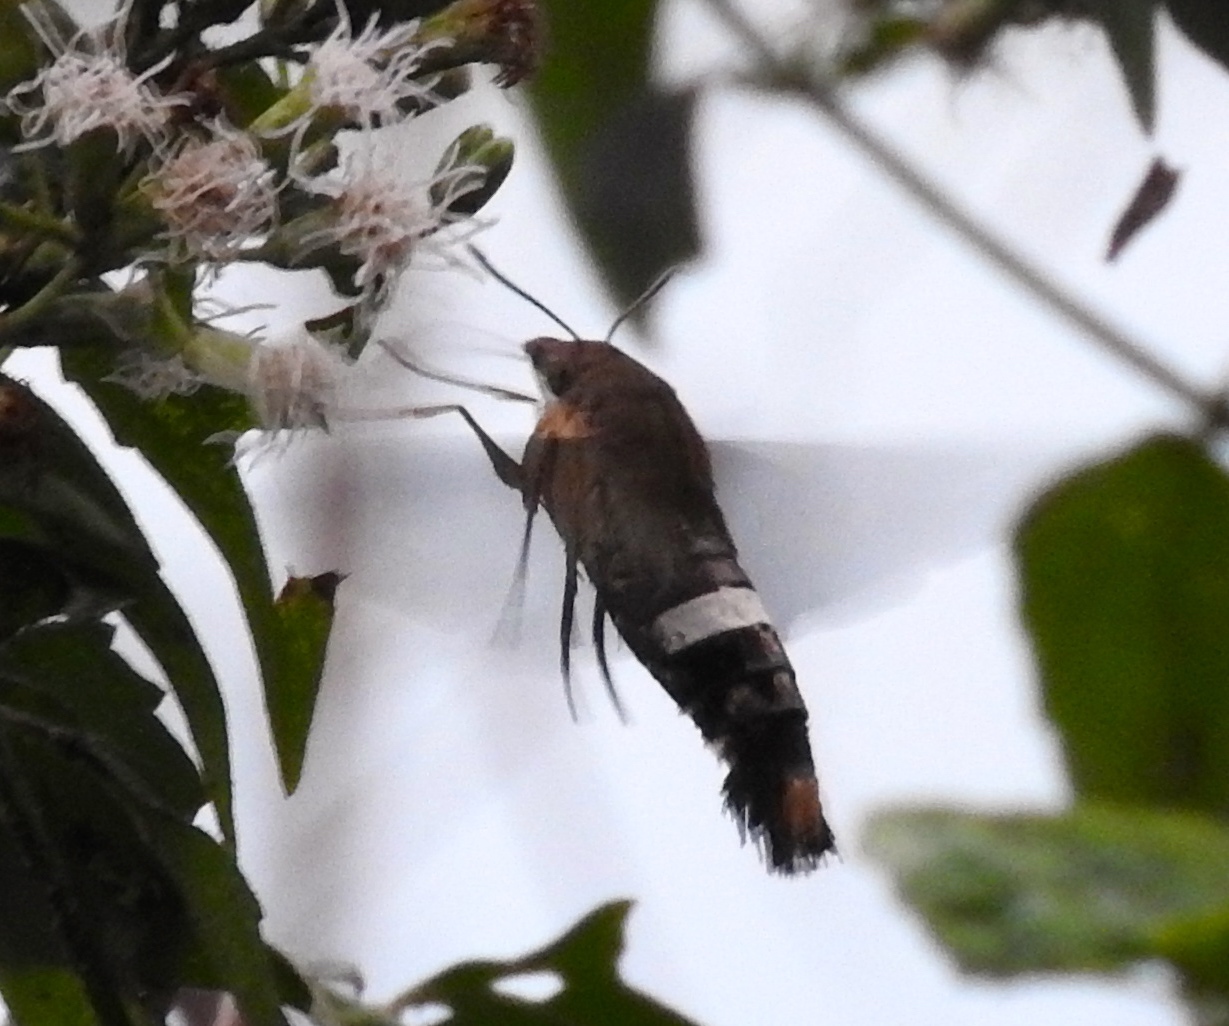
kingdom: Animalia
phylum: Arthropoda
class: Insecta
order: Lepidoptera
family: Sphingidae
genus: Aellopos
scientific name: Aellopos
